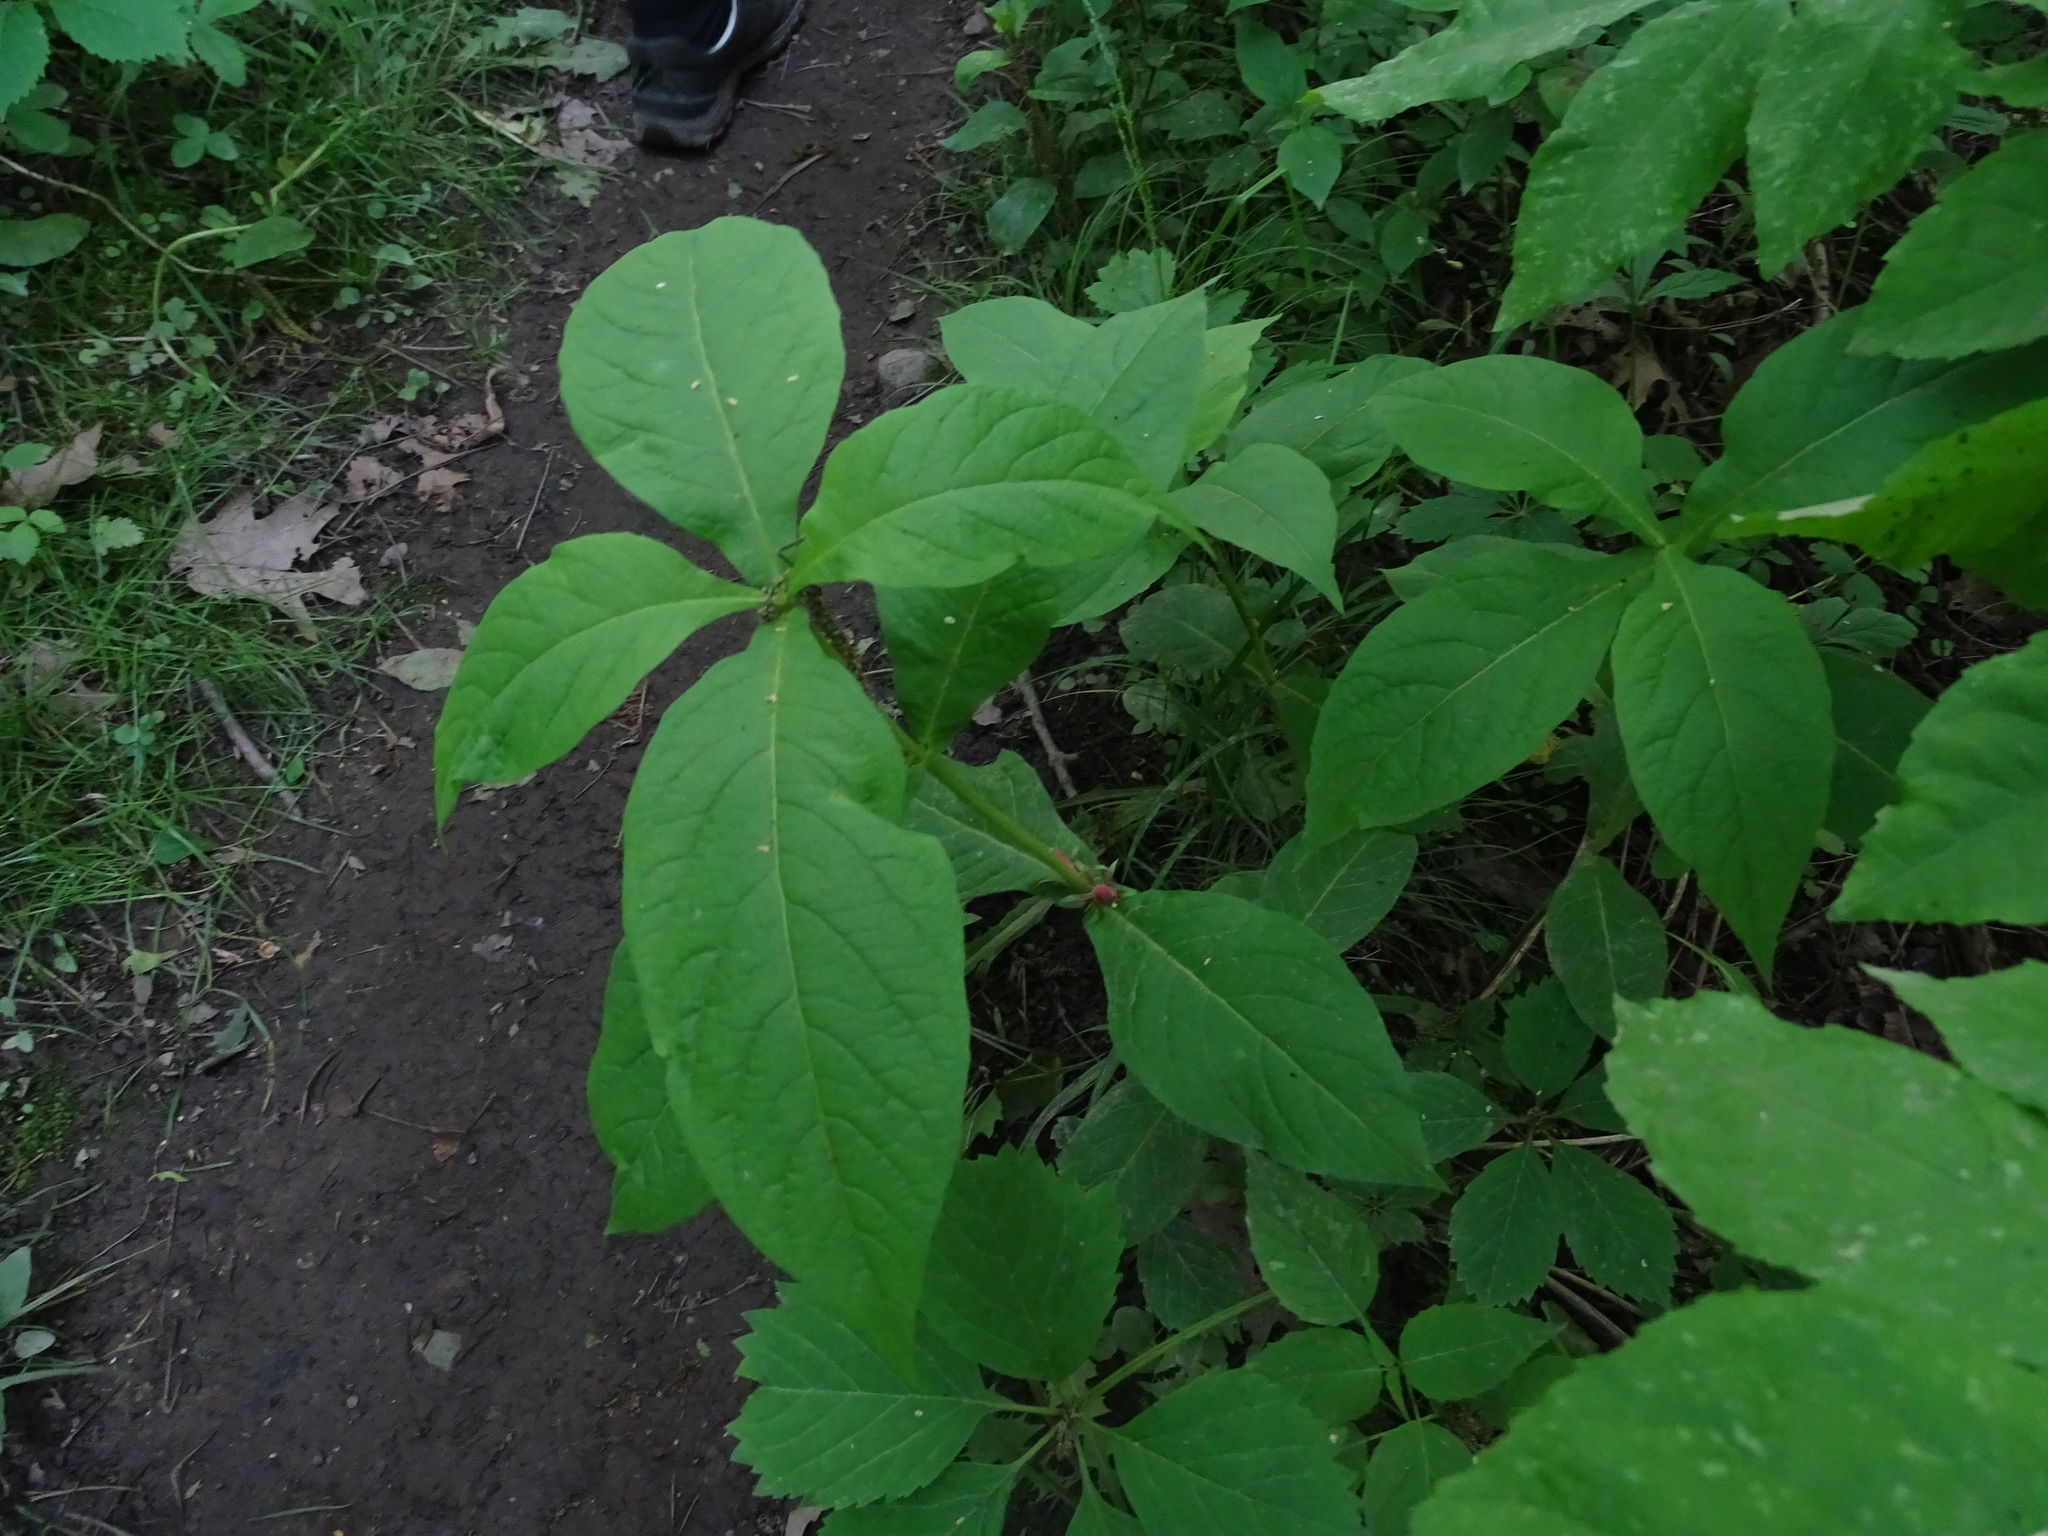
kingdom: Plantae
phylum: Tracheophyta
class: Magnoliopsida
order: Dipsacales
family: Caprifoliaceae
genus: Triosteum
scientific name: Triosteum aurantiacum
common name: Coffee tinker's-weed
